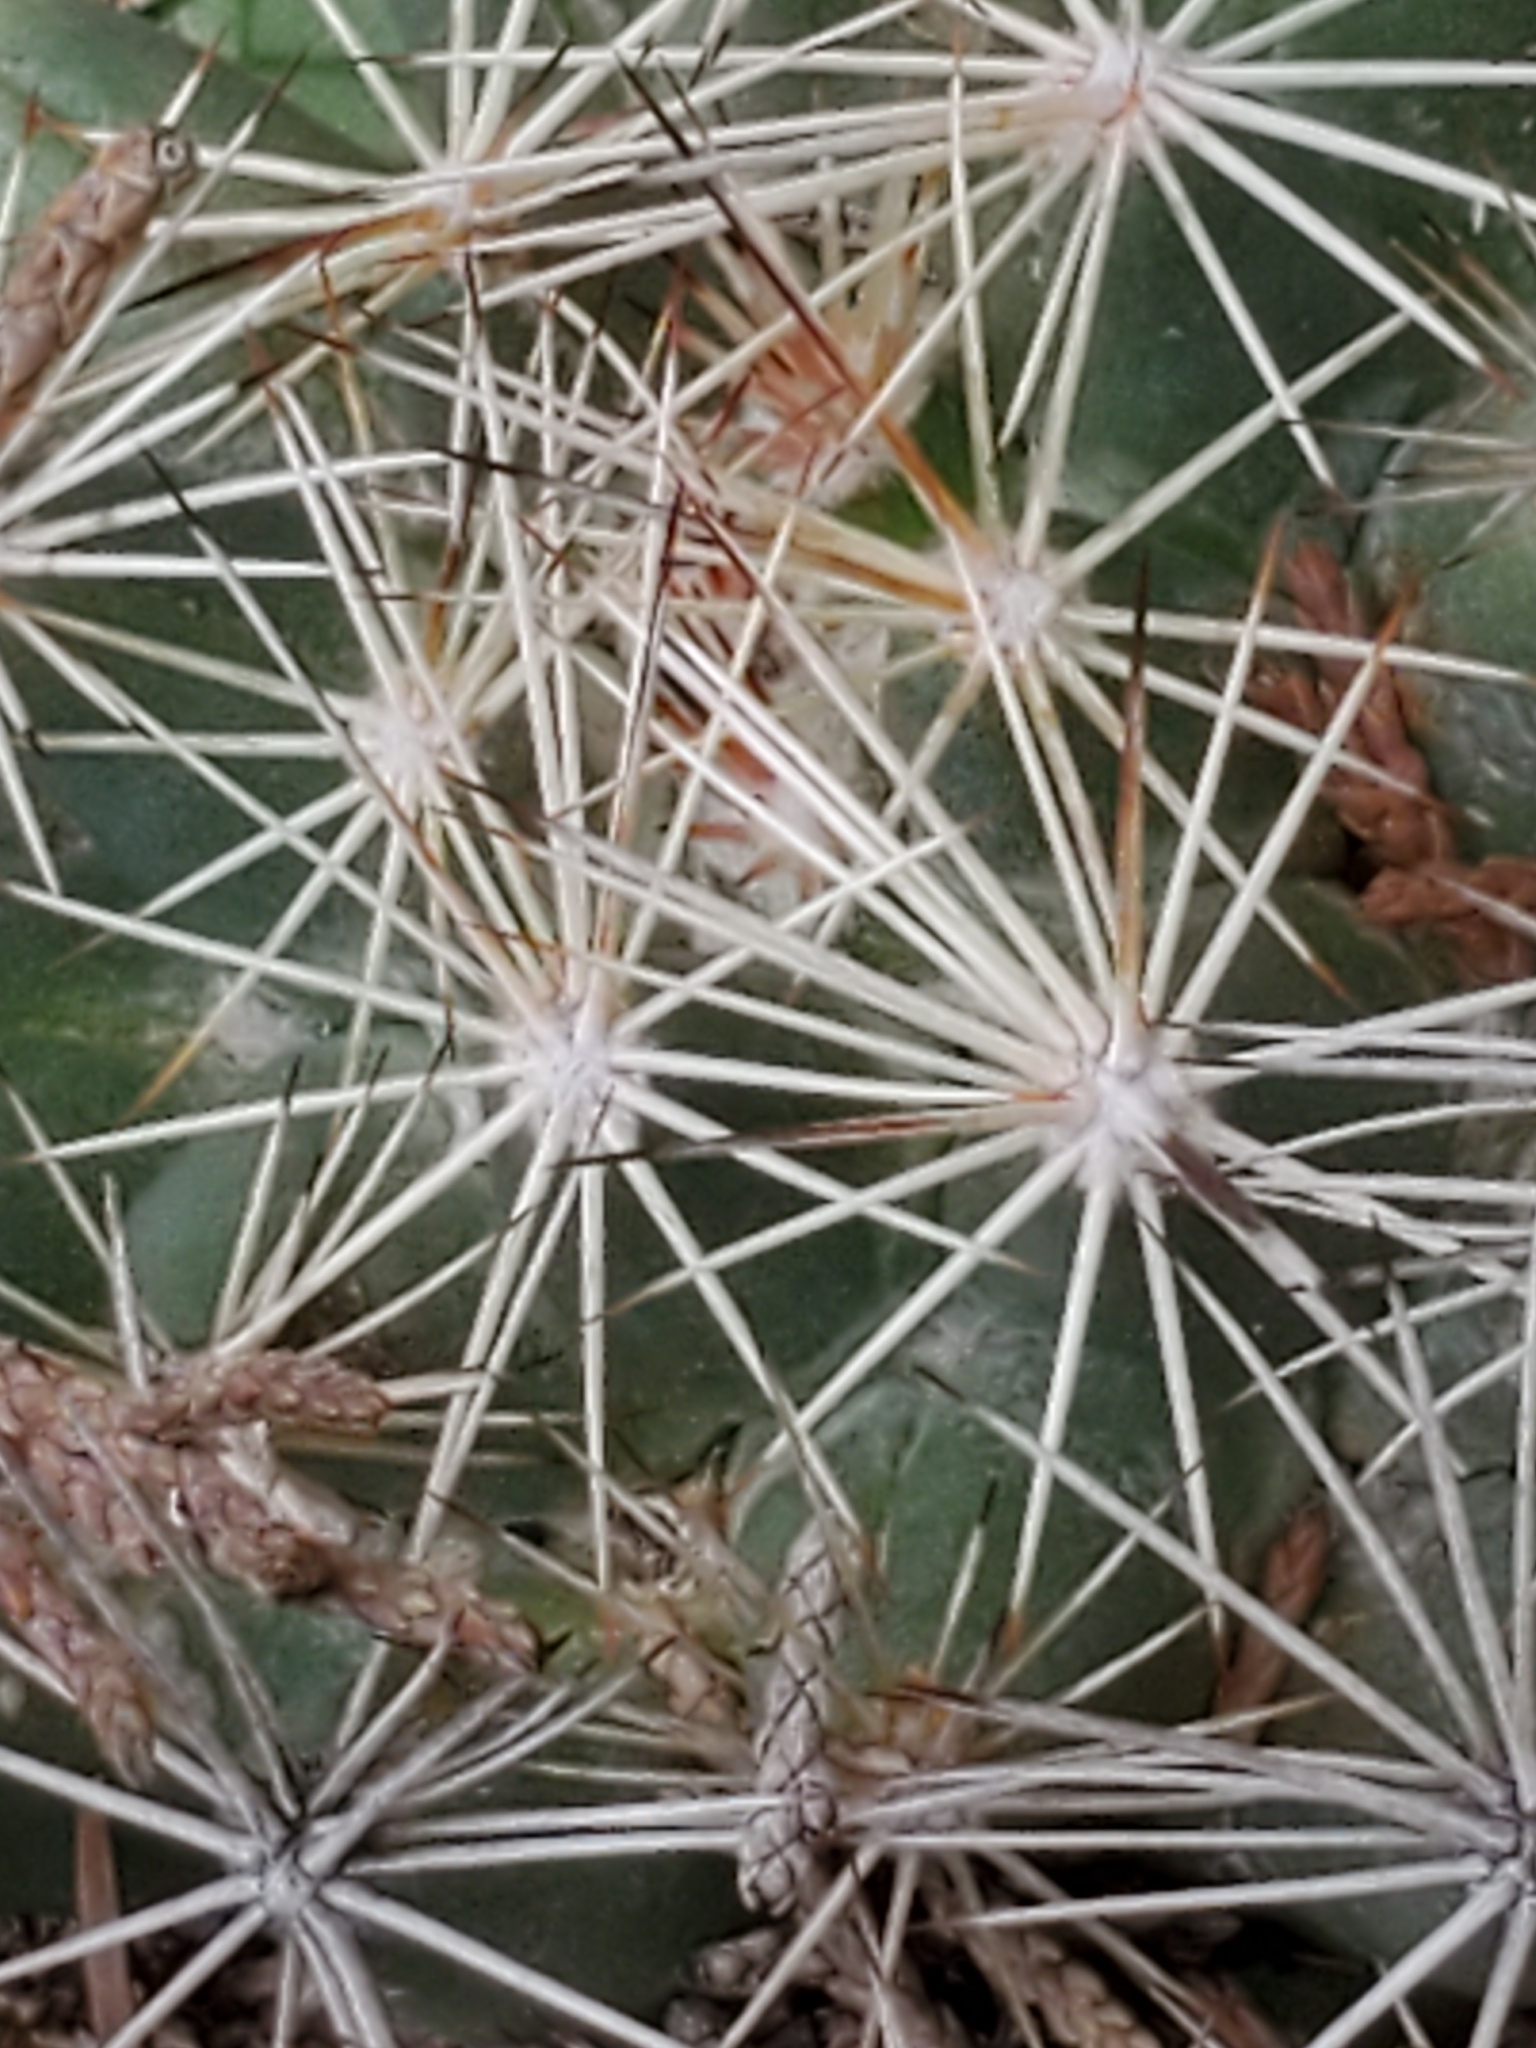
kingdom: Plantae
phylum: Tracheophyta
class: Magnoliopsida
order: Caryophyllales
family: Cactaceae
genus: Coryphantha
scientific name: Coryphantha sulcata
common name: Finger cactus
